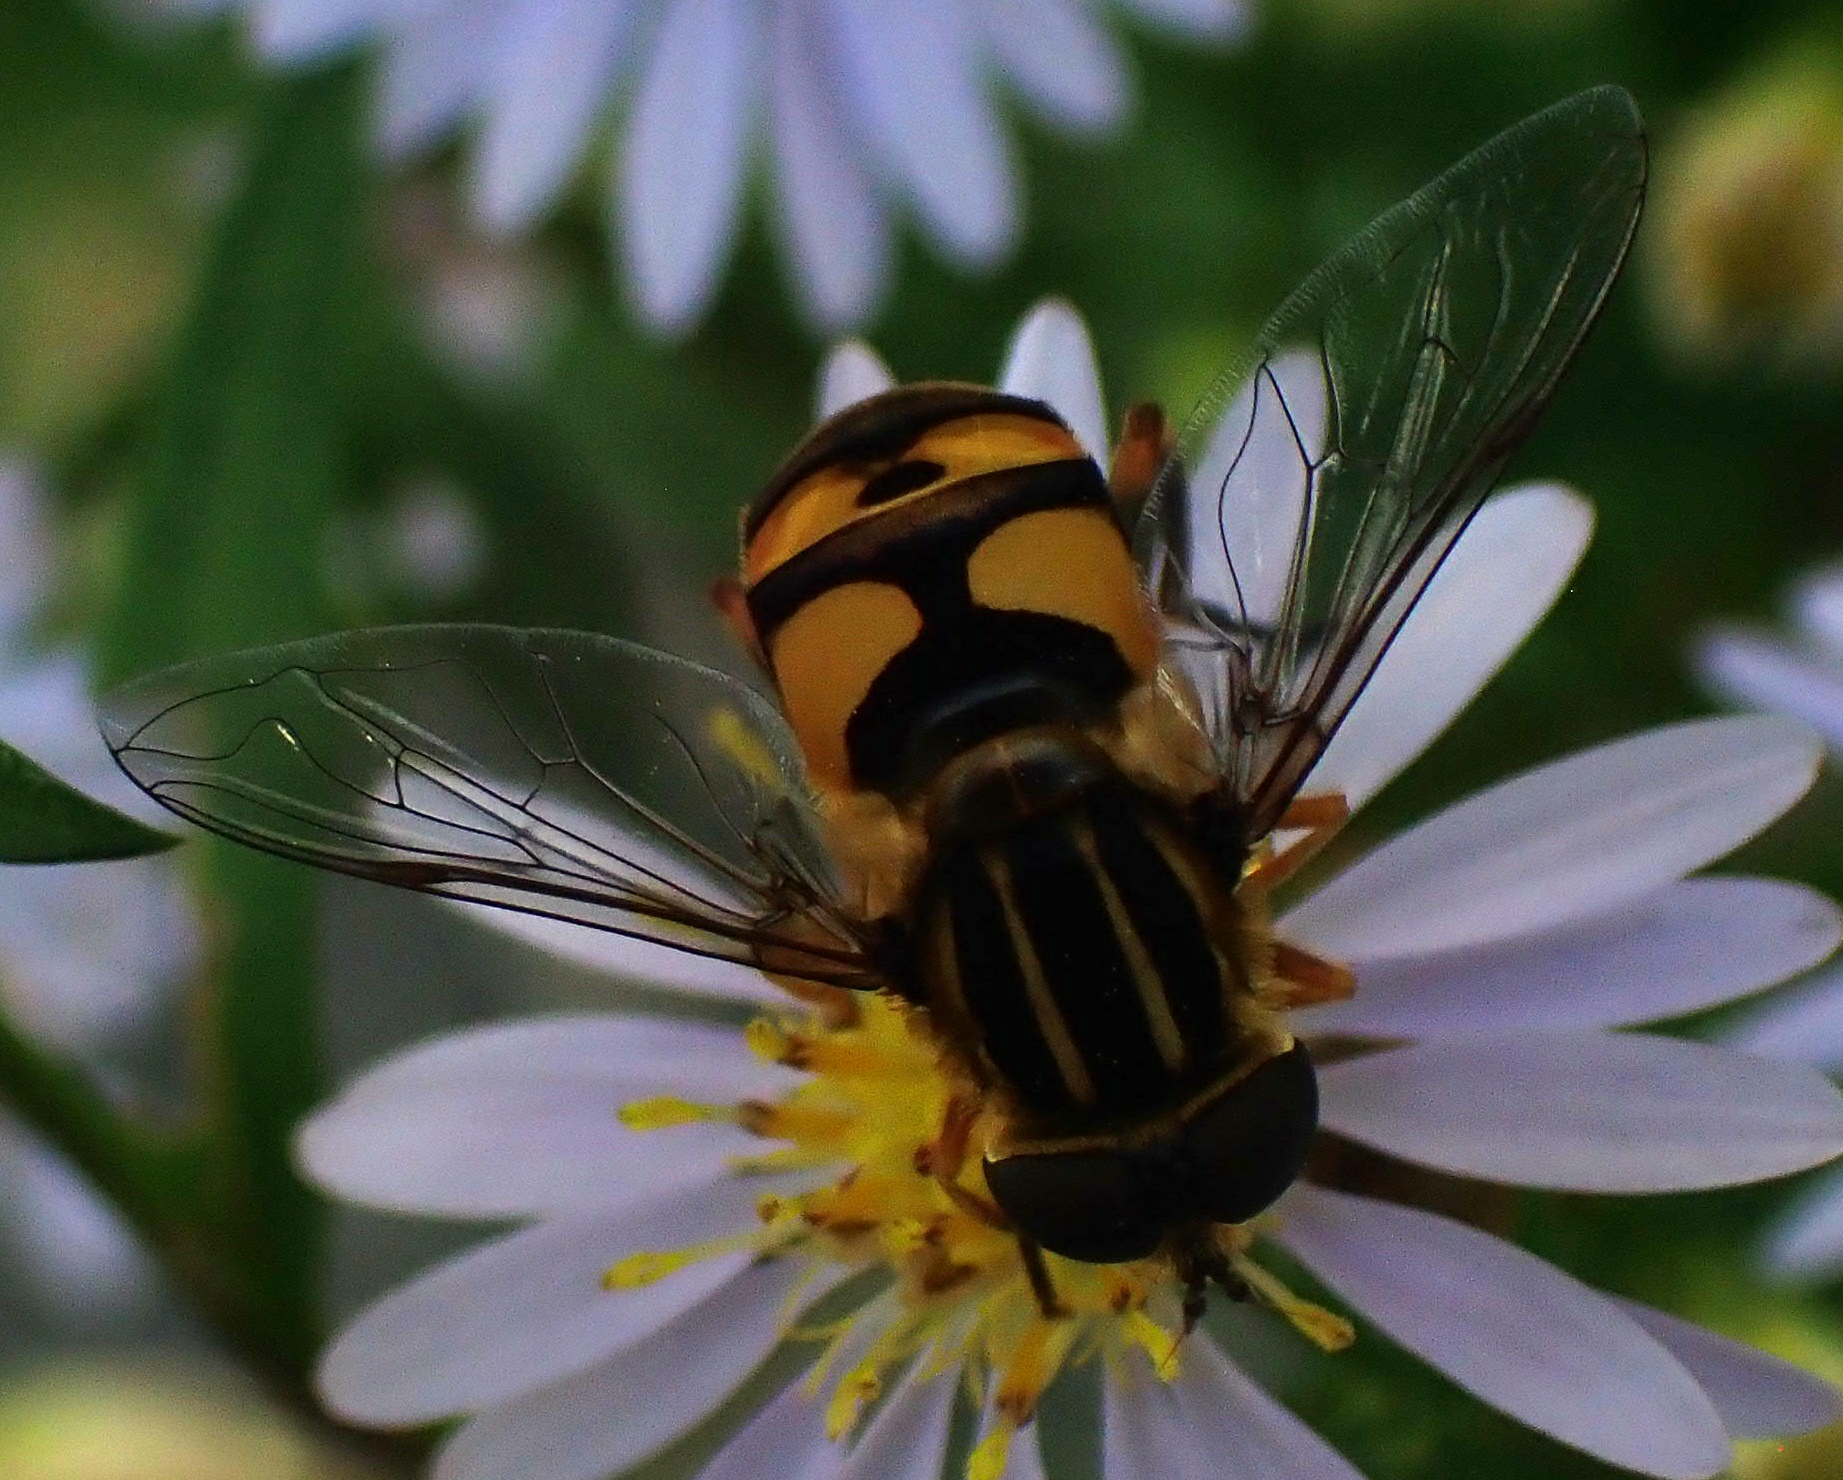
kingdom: Animalia
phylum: Arthropoda
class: Insecta
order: Diptera
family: Syrphidae
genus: Helophilus
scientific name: Helophilus fasciatus
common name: Narrow-headed marsh fly
